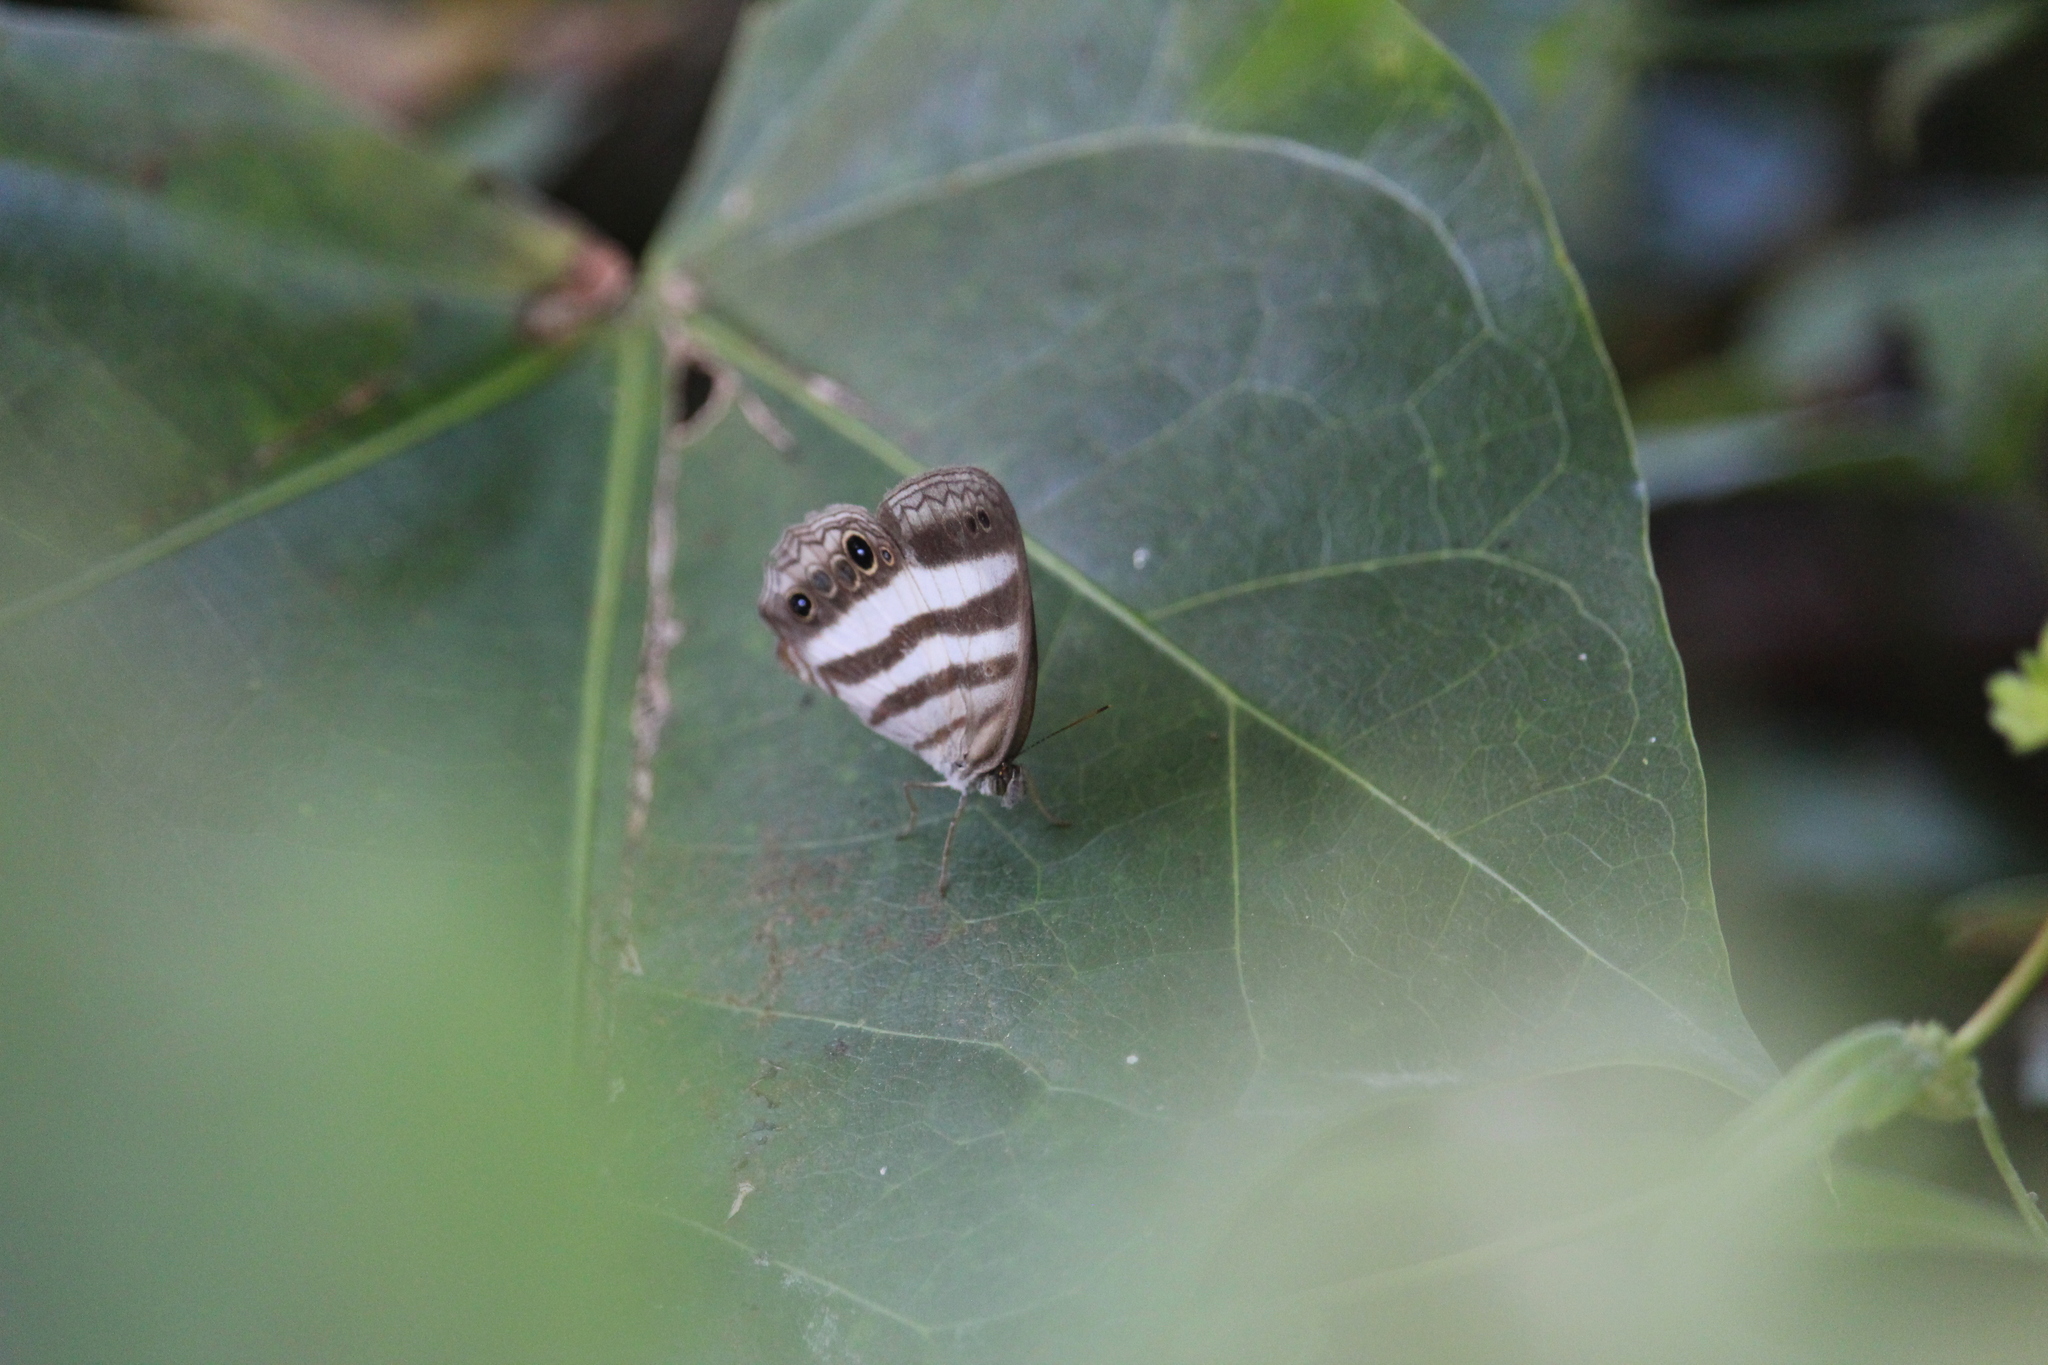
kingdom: Animalia
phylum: Arthropoda
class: Insecta
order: Lepidoptera
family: Nymphalidae
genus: Pareuptychia
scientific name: Pareuptychia hesione
